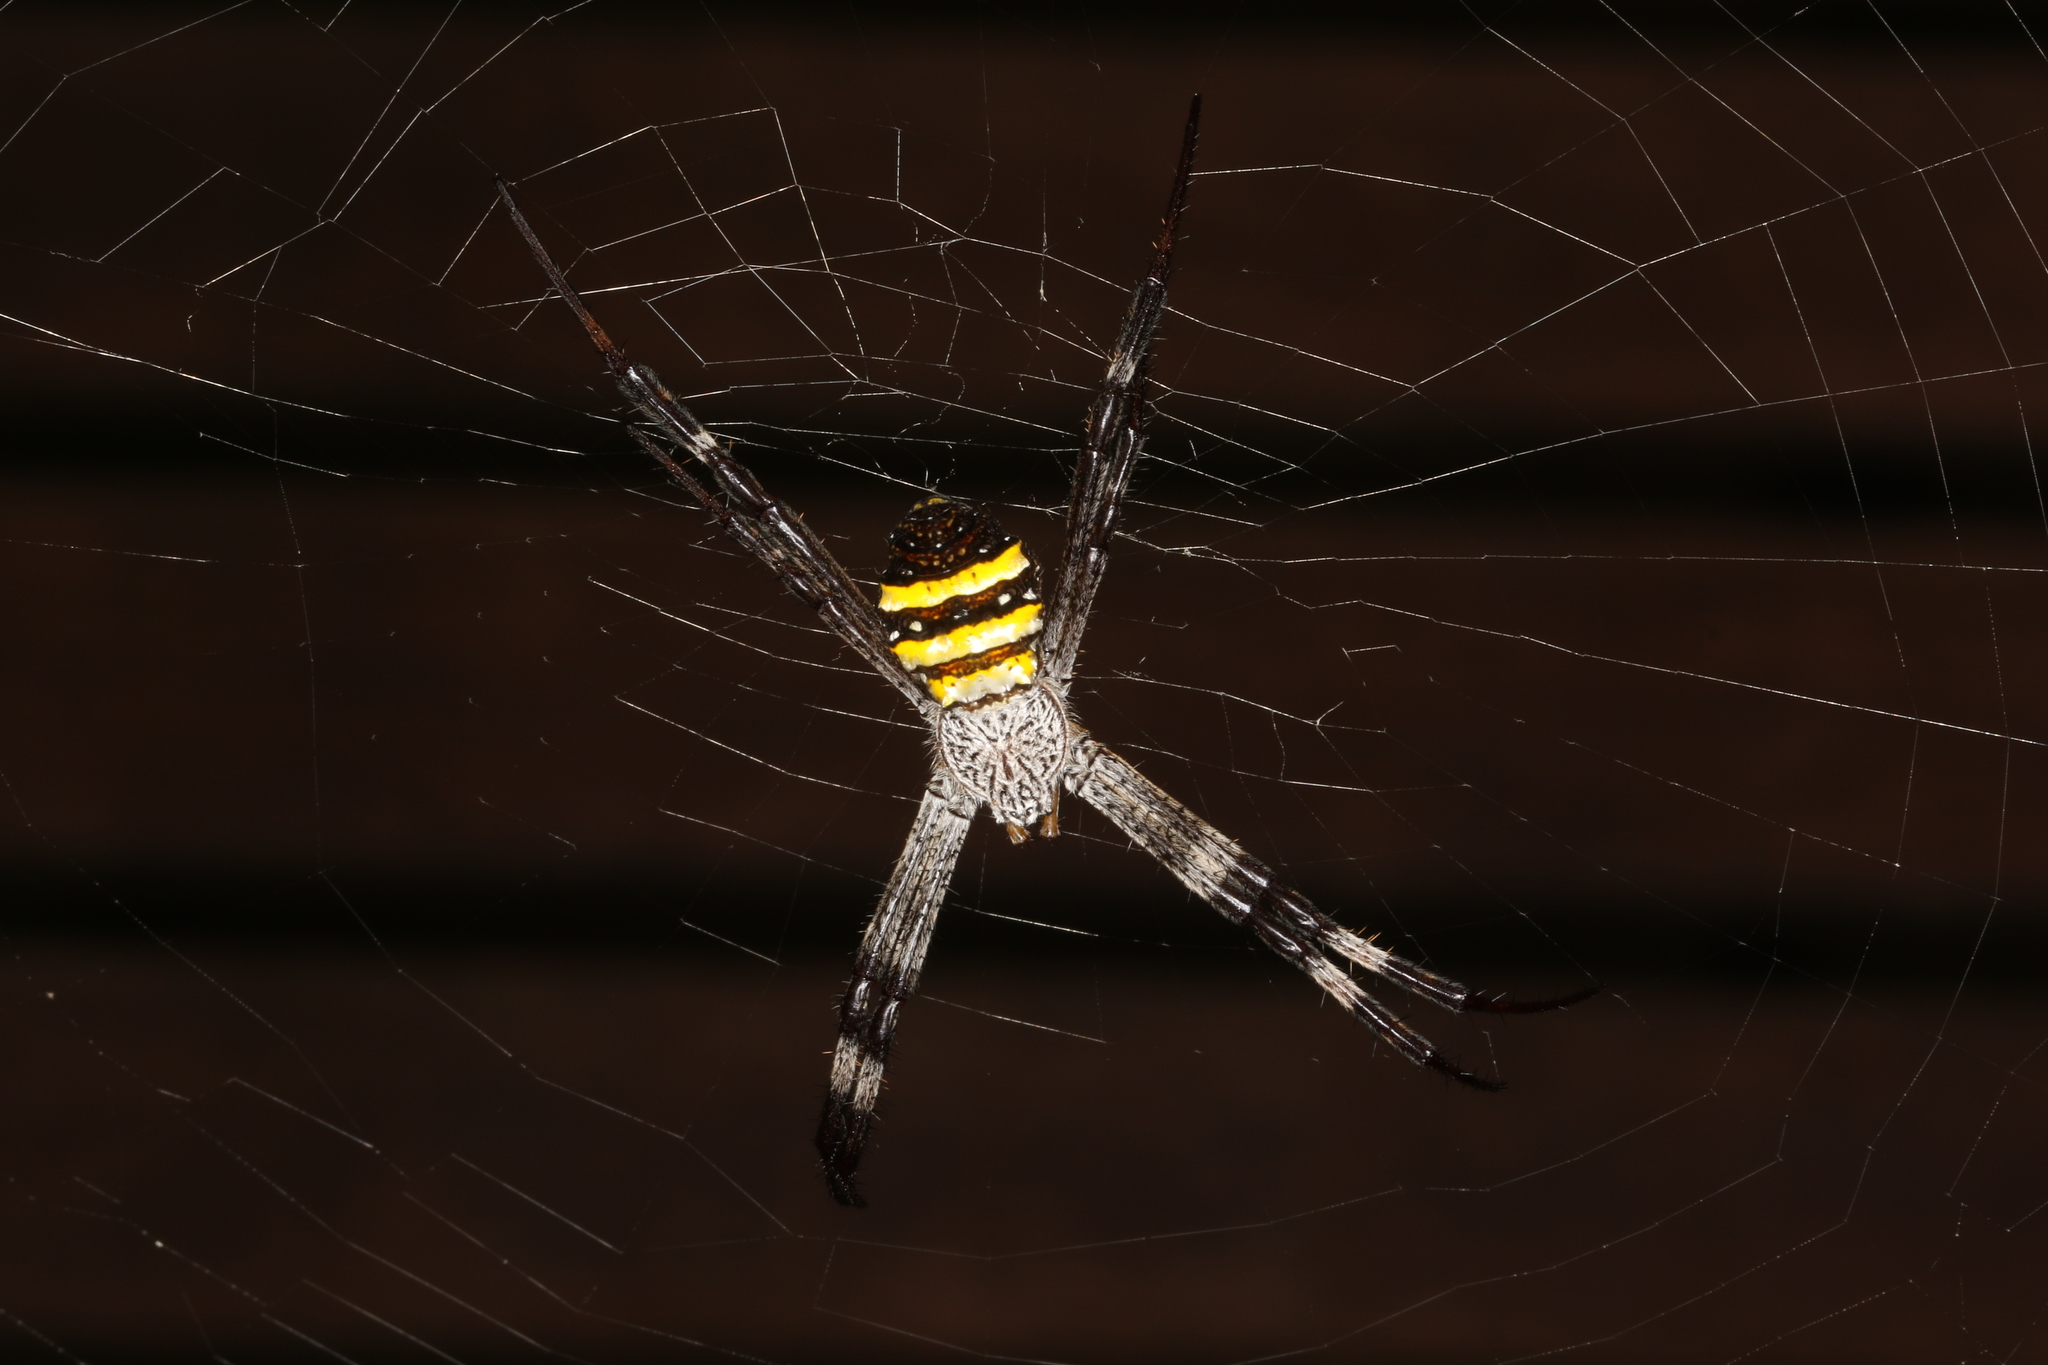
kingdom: Animalia
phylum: Arthropoda
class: Arachnida
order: Araneae
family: Araneidae
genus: Argiope
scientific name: Argiope aetherea
